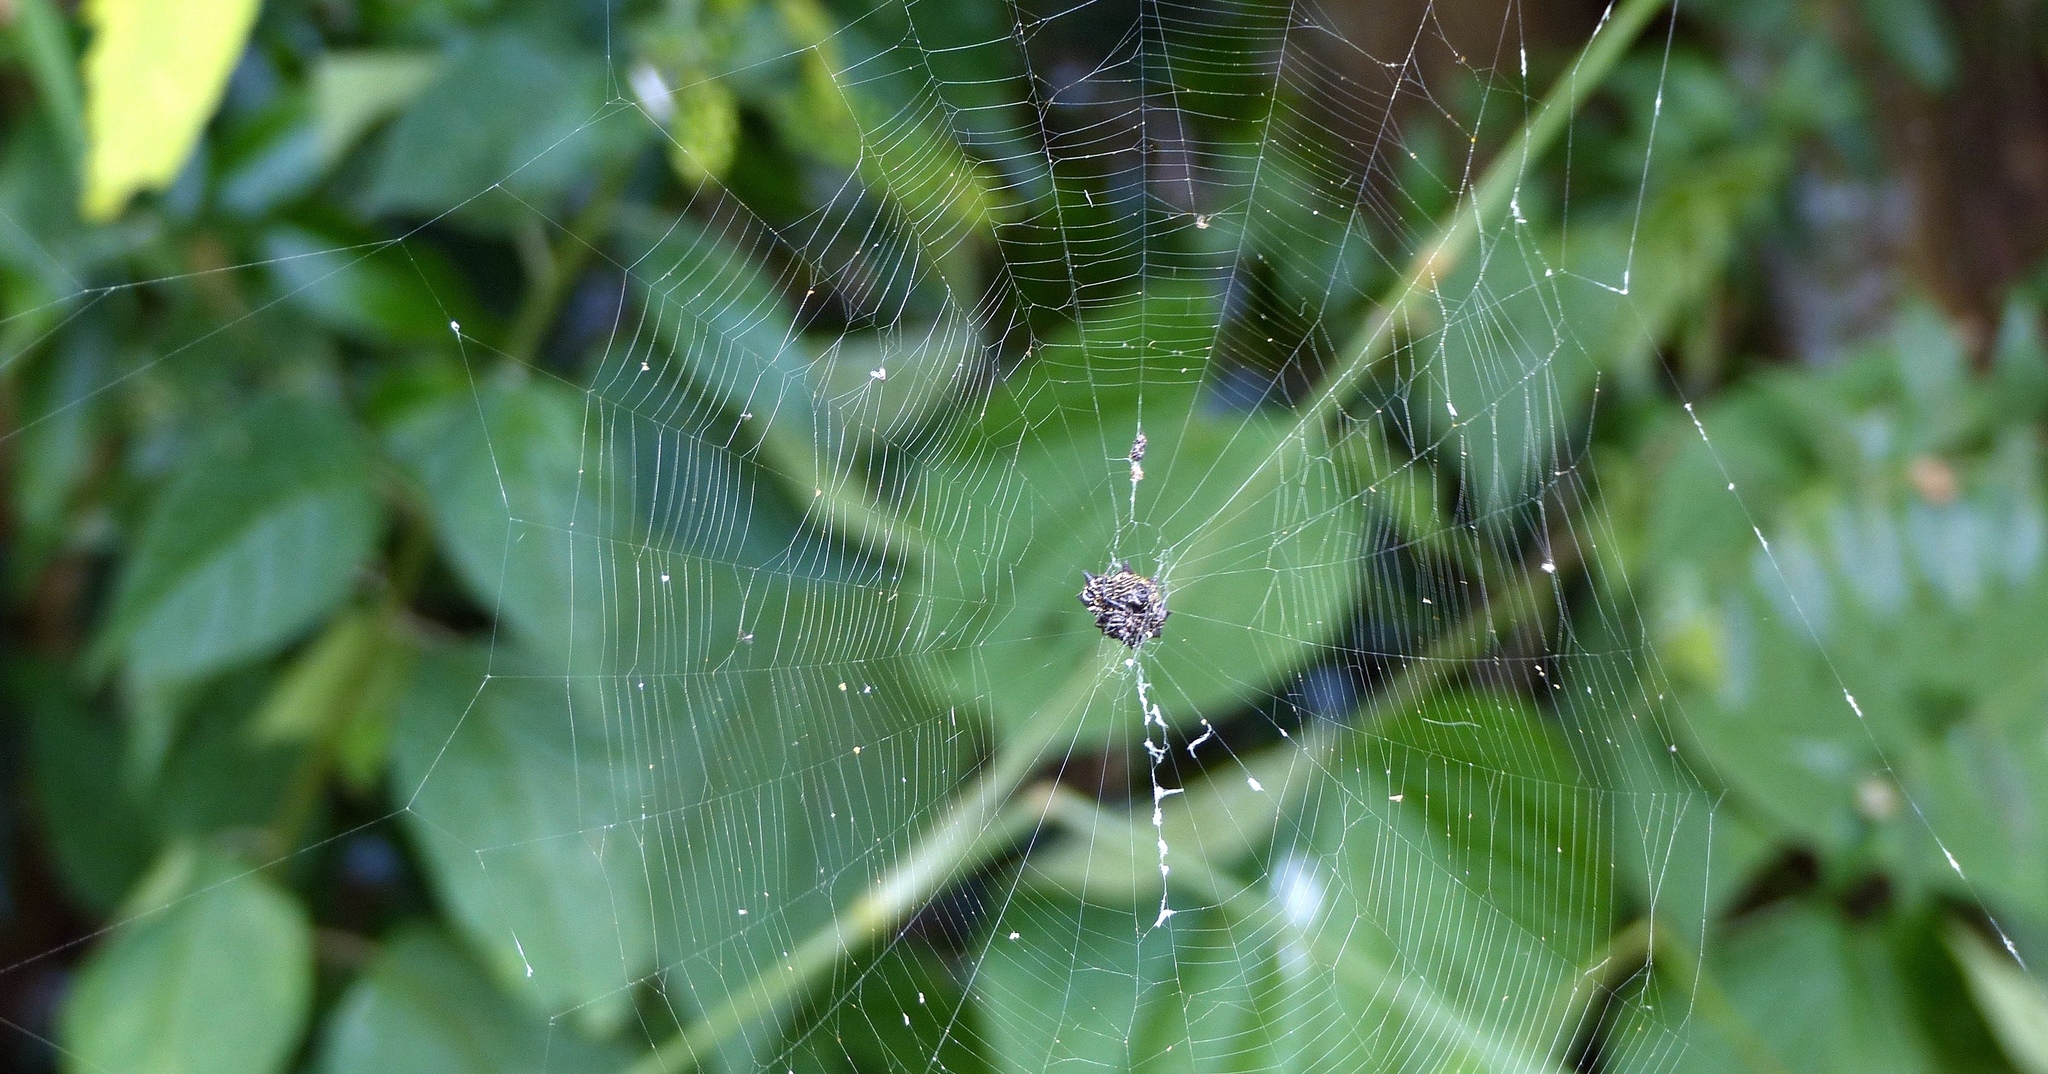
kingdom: Animalia
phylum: Arthropoda
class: Arachnida
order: Araneae
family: Araneidae
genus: Gasteracantha
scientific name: Gasteracantha cancriformis
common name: Orb weavers
